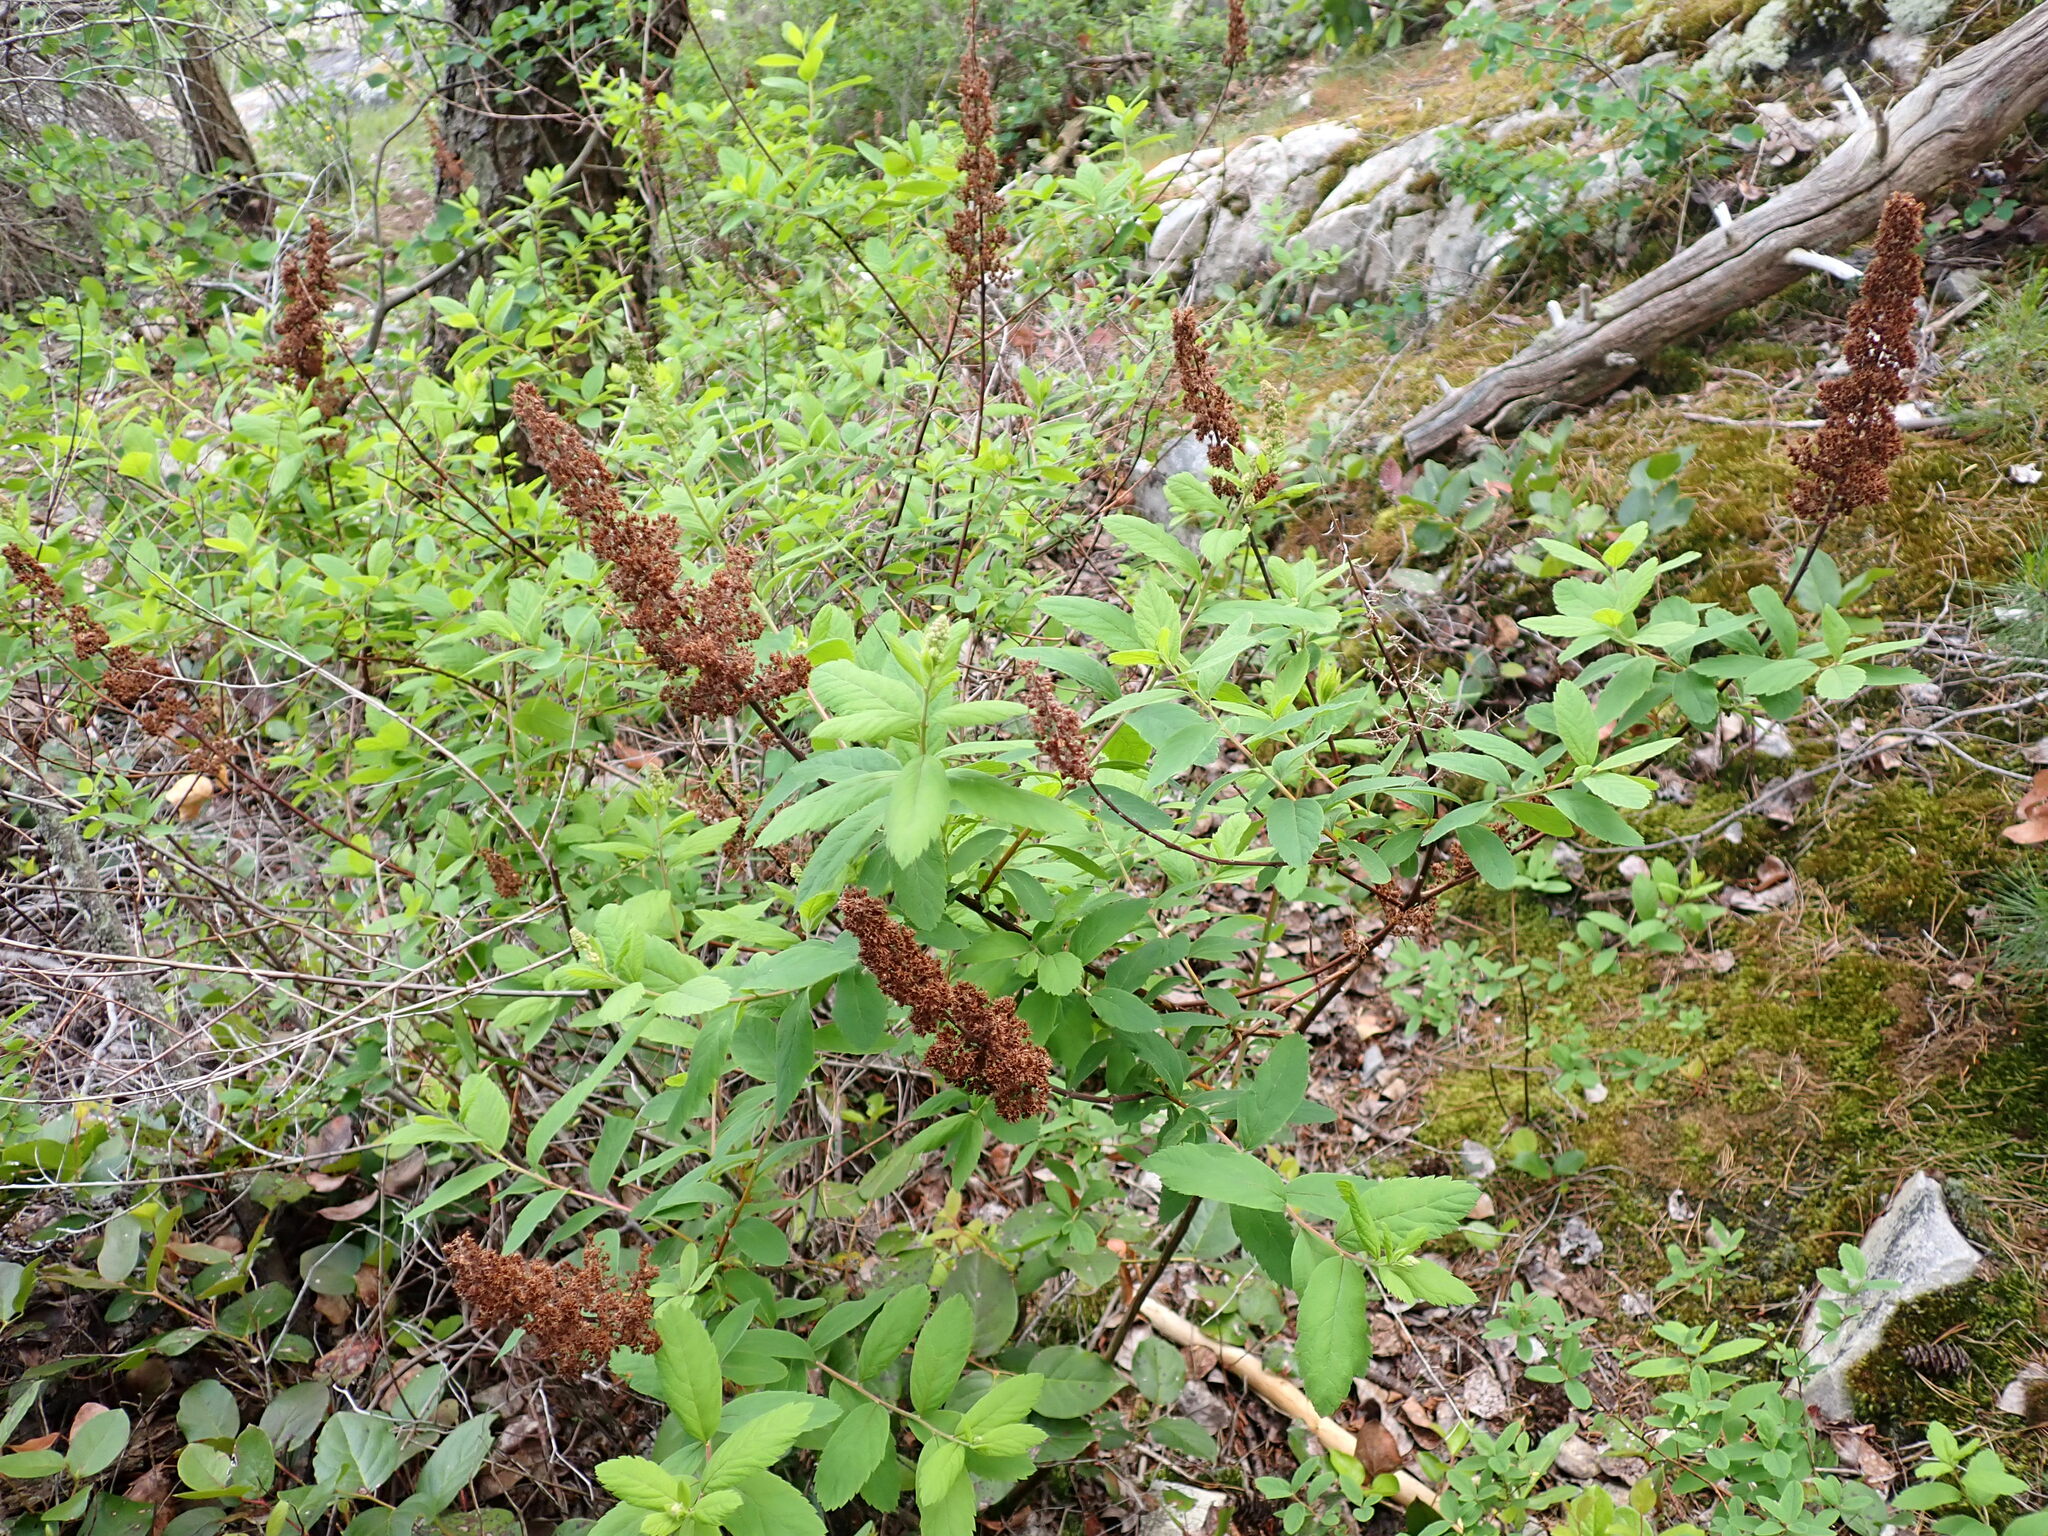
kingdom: Plantae
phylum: Tracheophyta
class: Magnoliopsida
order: Rosales
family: Rosaceae
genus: Spiraea
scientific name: Spiraea douglasii
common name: Steeplebush
